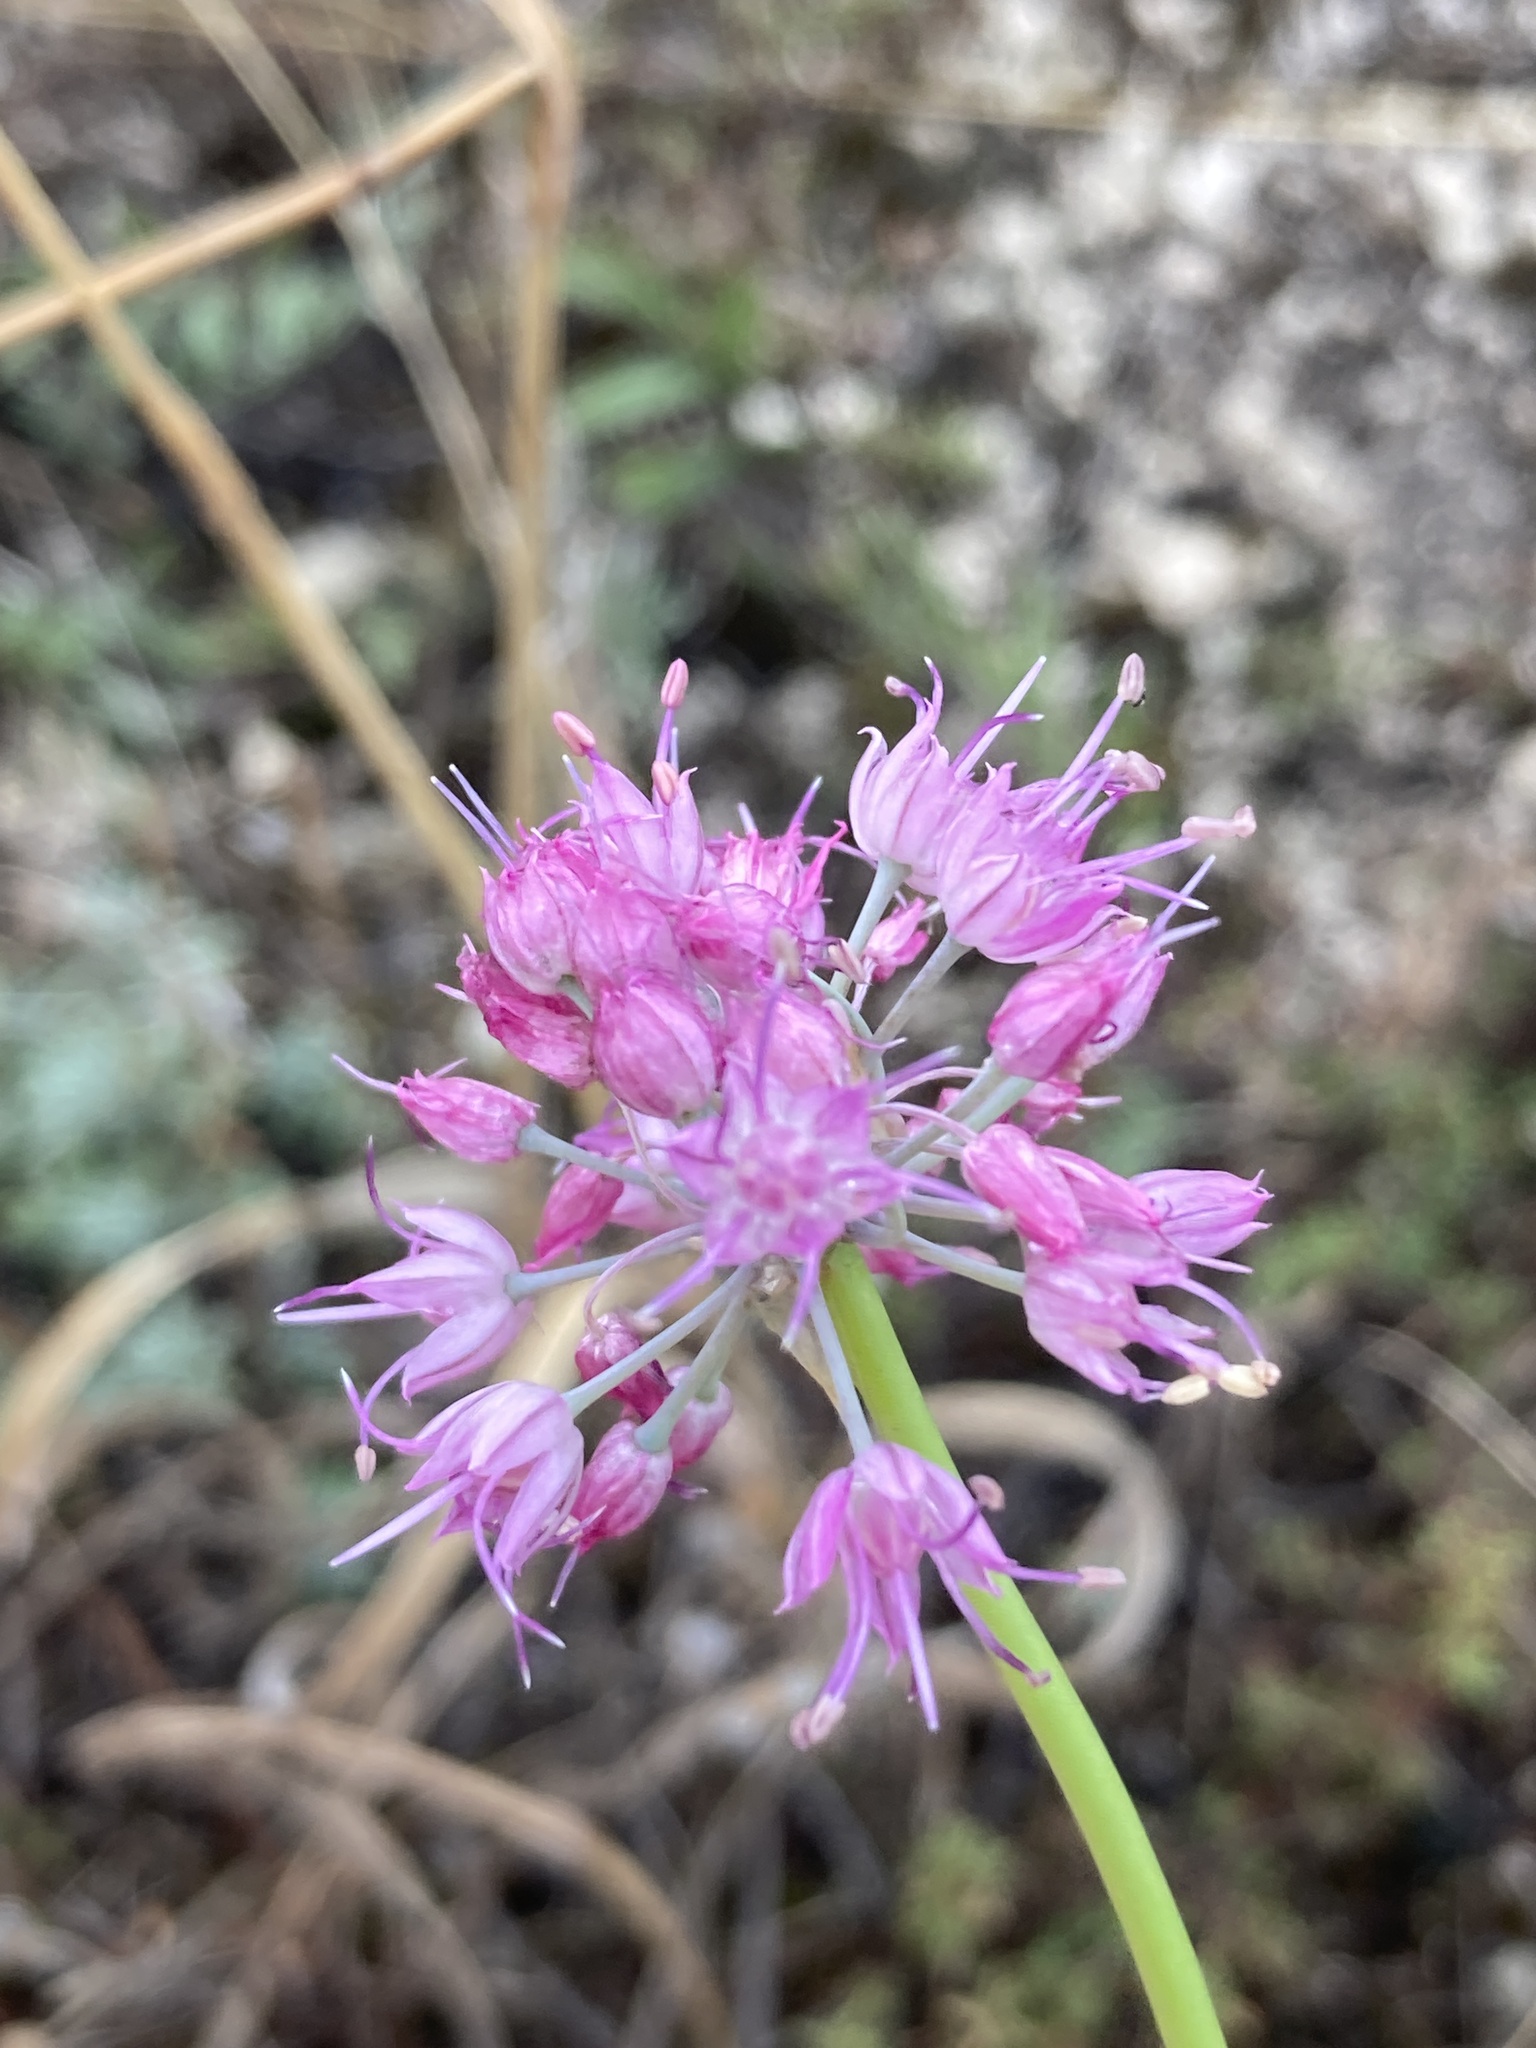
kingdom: Plantae
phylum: Tracheophyta
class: Liliopsida
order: Asparagales
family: Amaryllidaceae
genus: Allium
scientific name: Allium cretaceum
